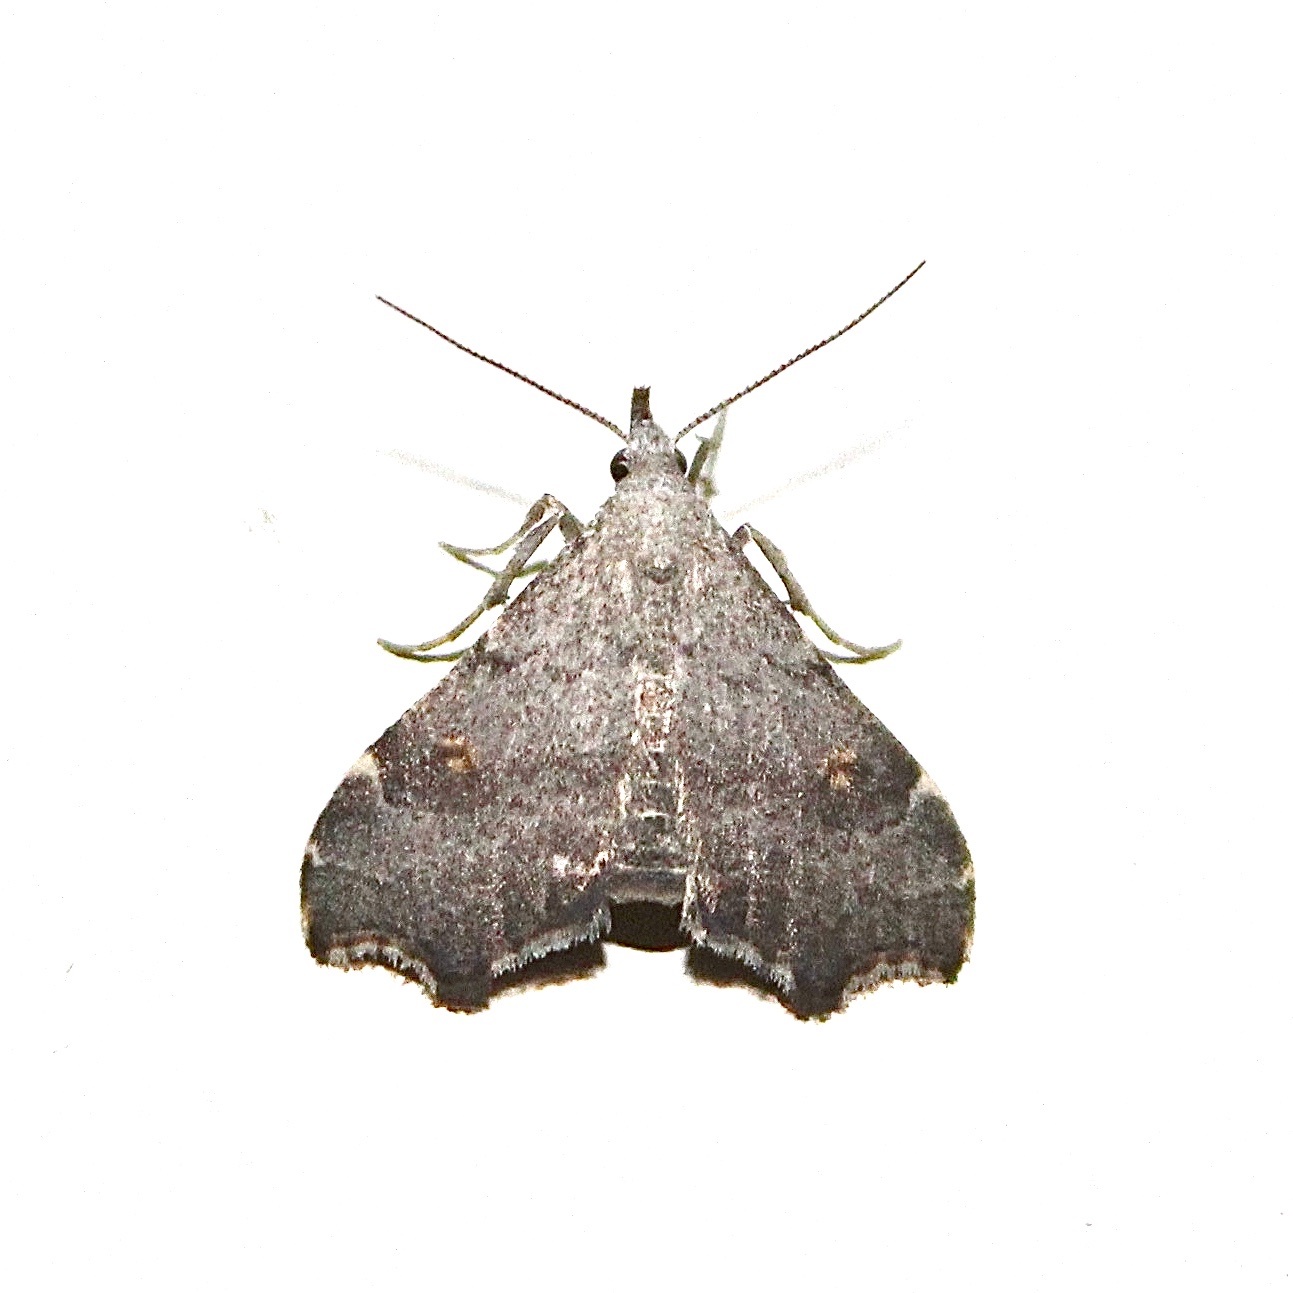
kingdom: Animalia
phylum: Arthropoda
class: Insecta
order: Lepidoptera
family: Erebidae
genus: Redectis
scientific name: Redectis pygmaea
